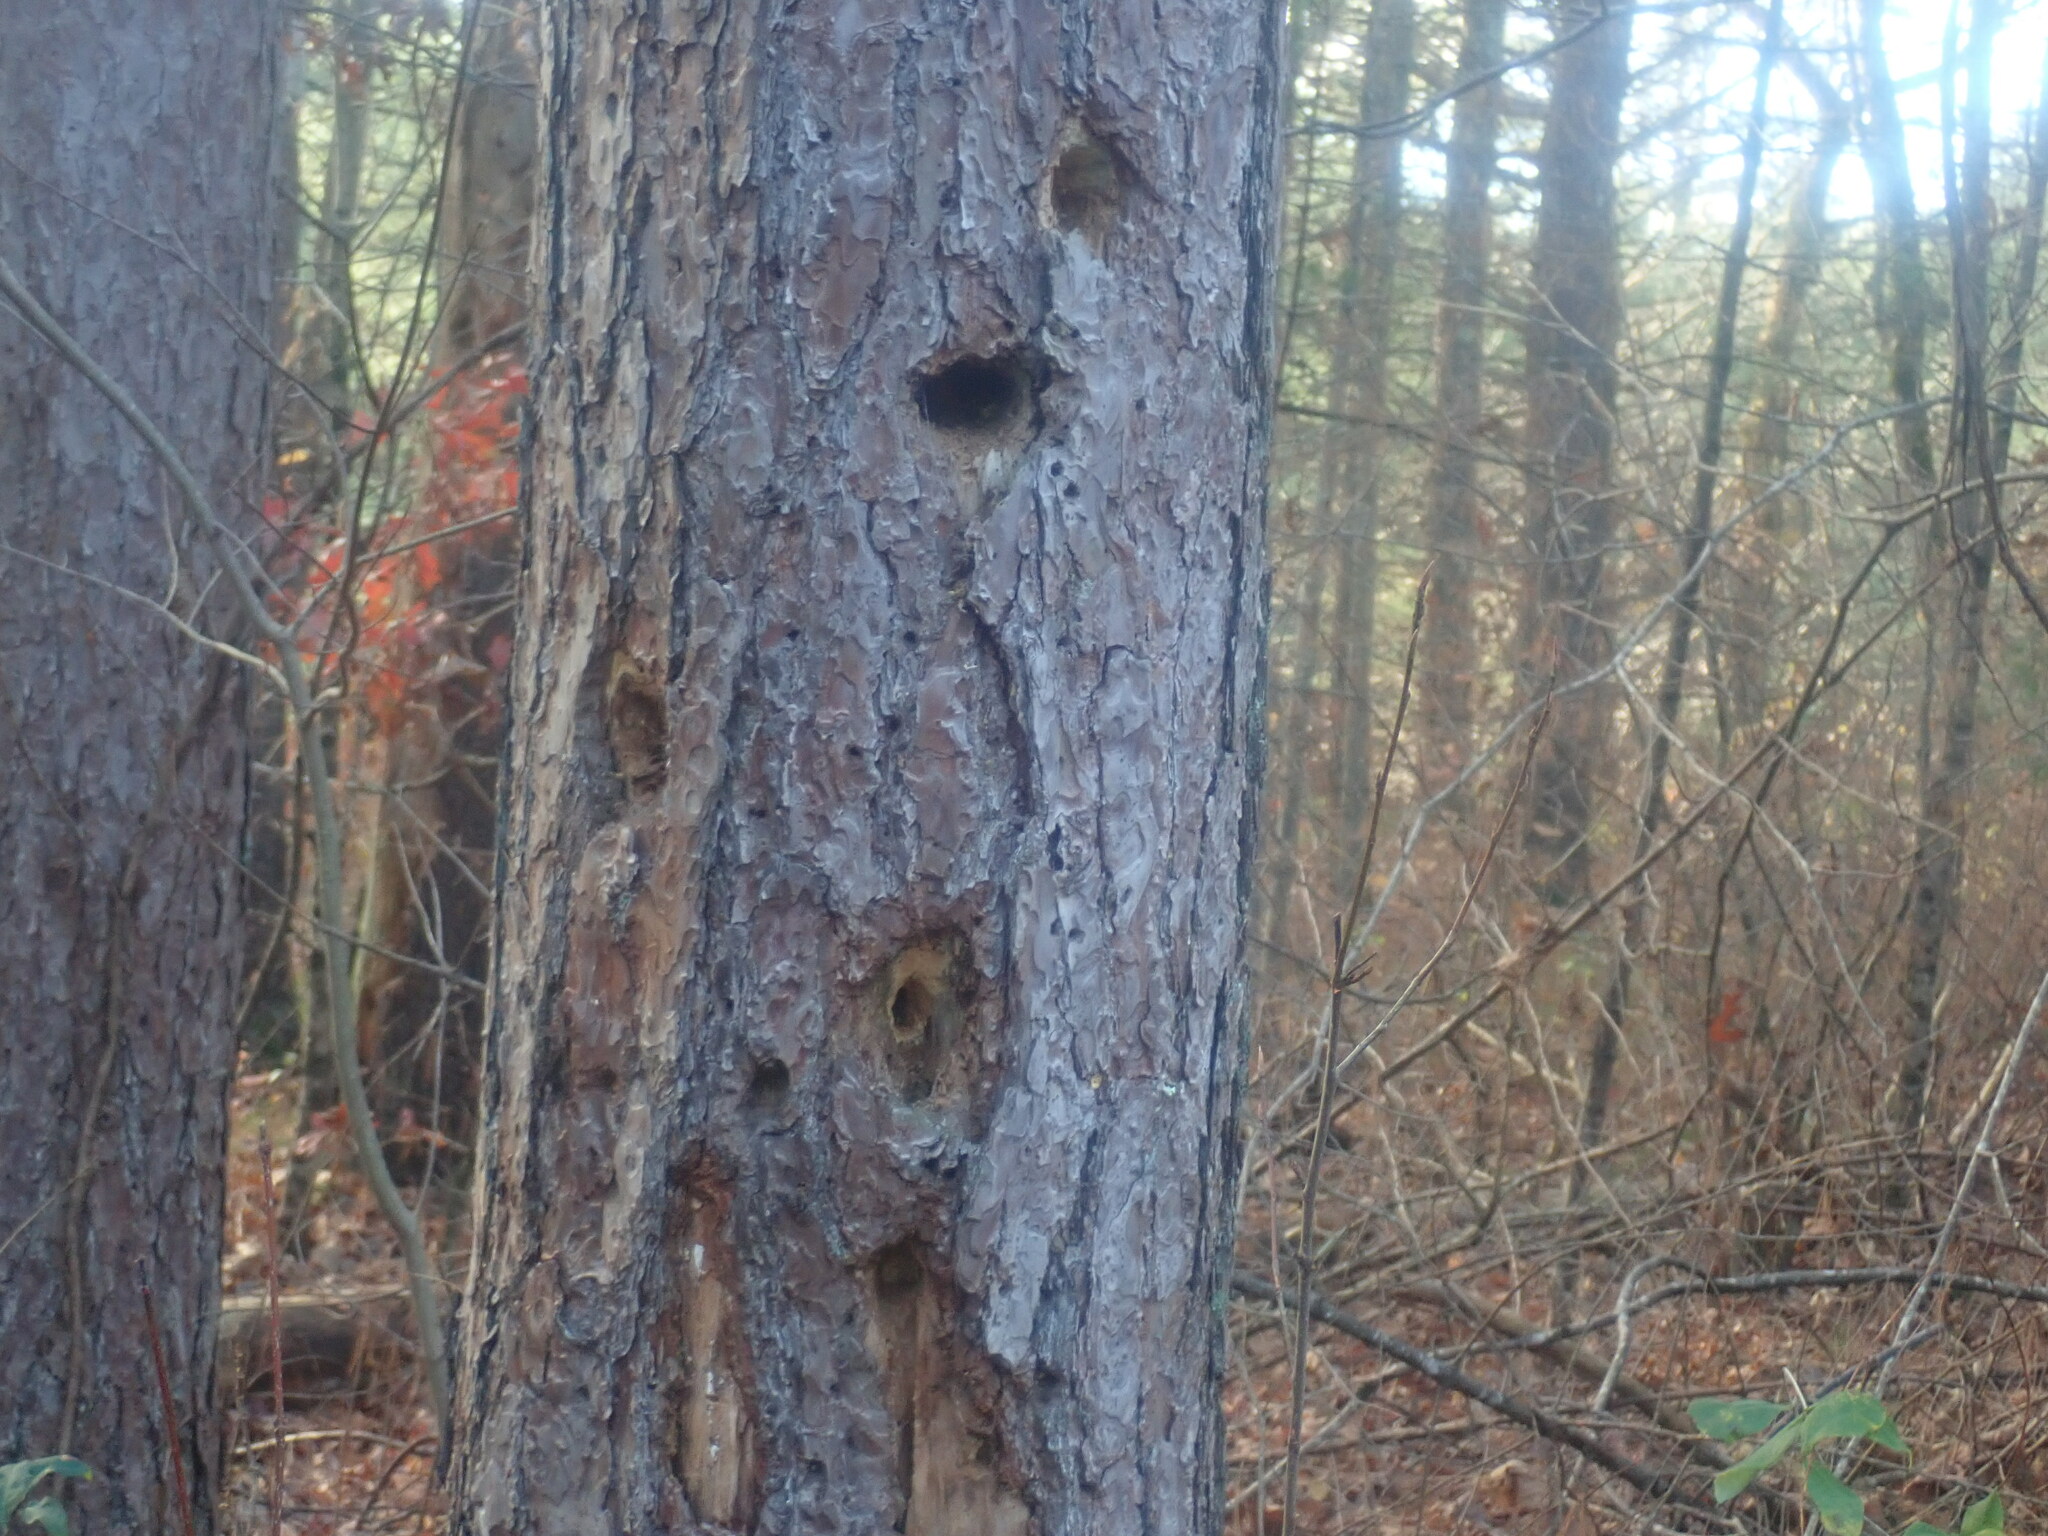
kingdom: Animalia
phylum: Chordata
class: Aves
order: Piciformes
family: Picidae
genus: Dryocopus
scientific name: Dryocopus pileatus
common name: Pileated woodpecker
